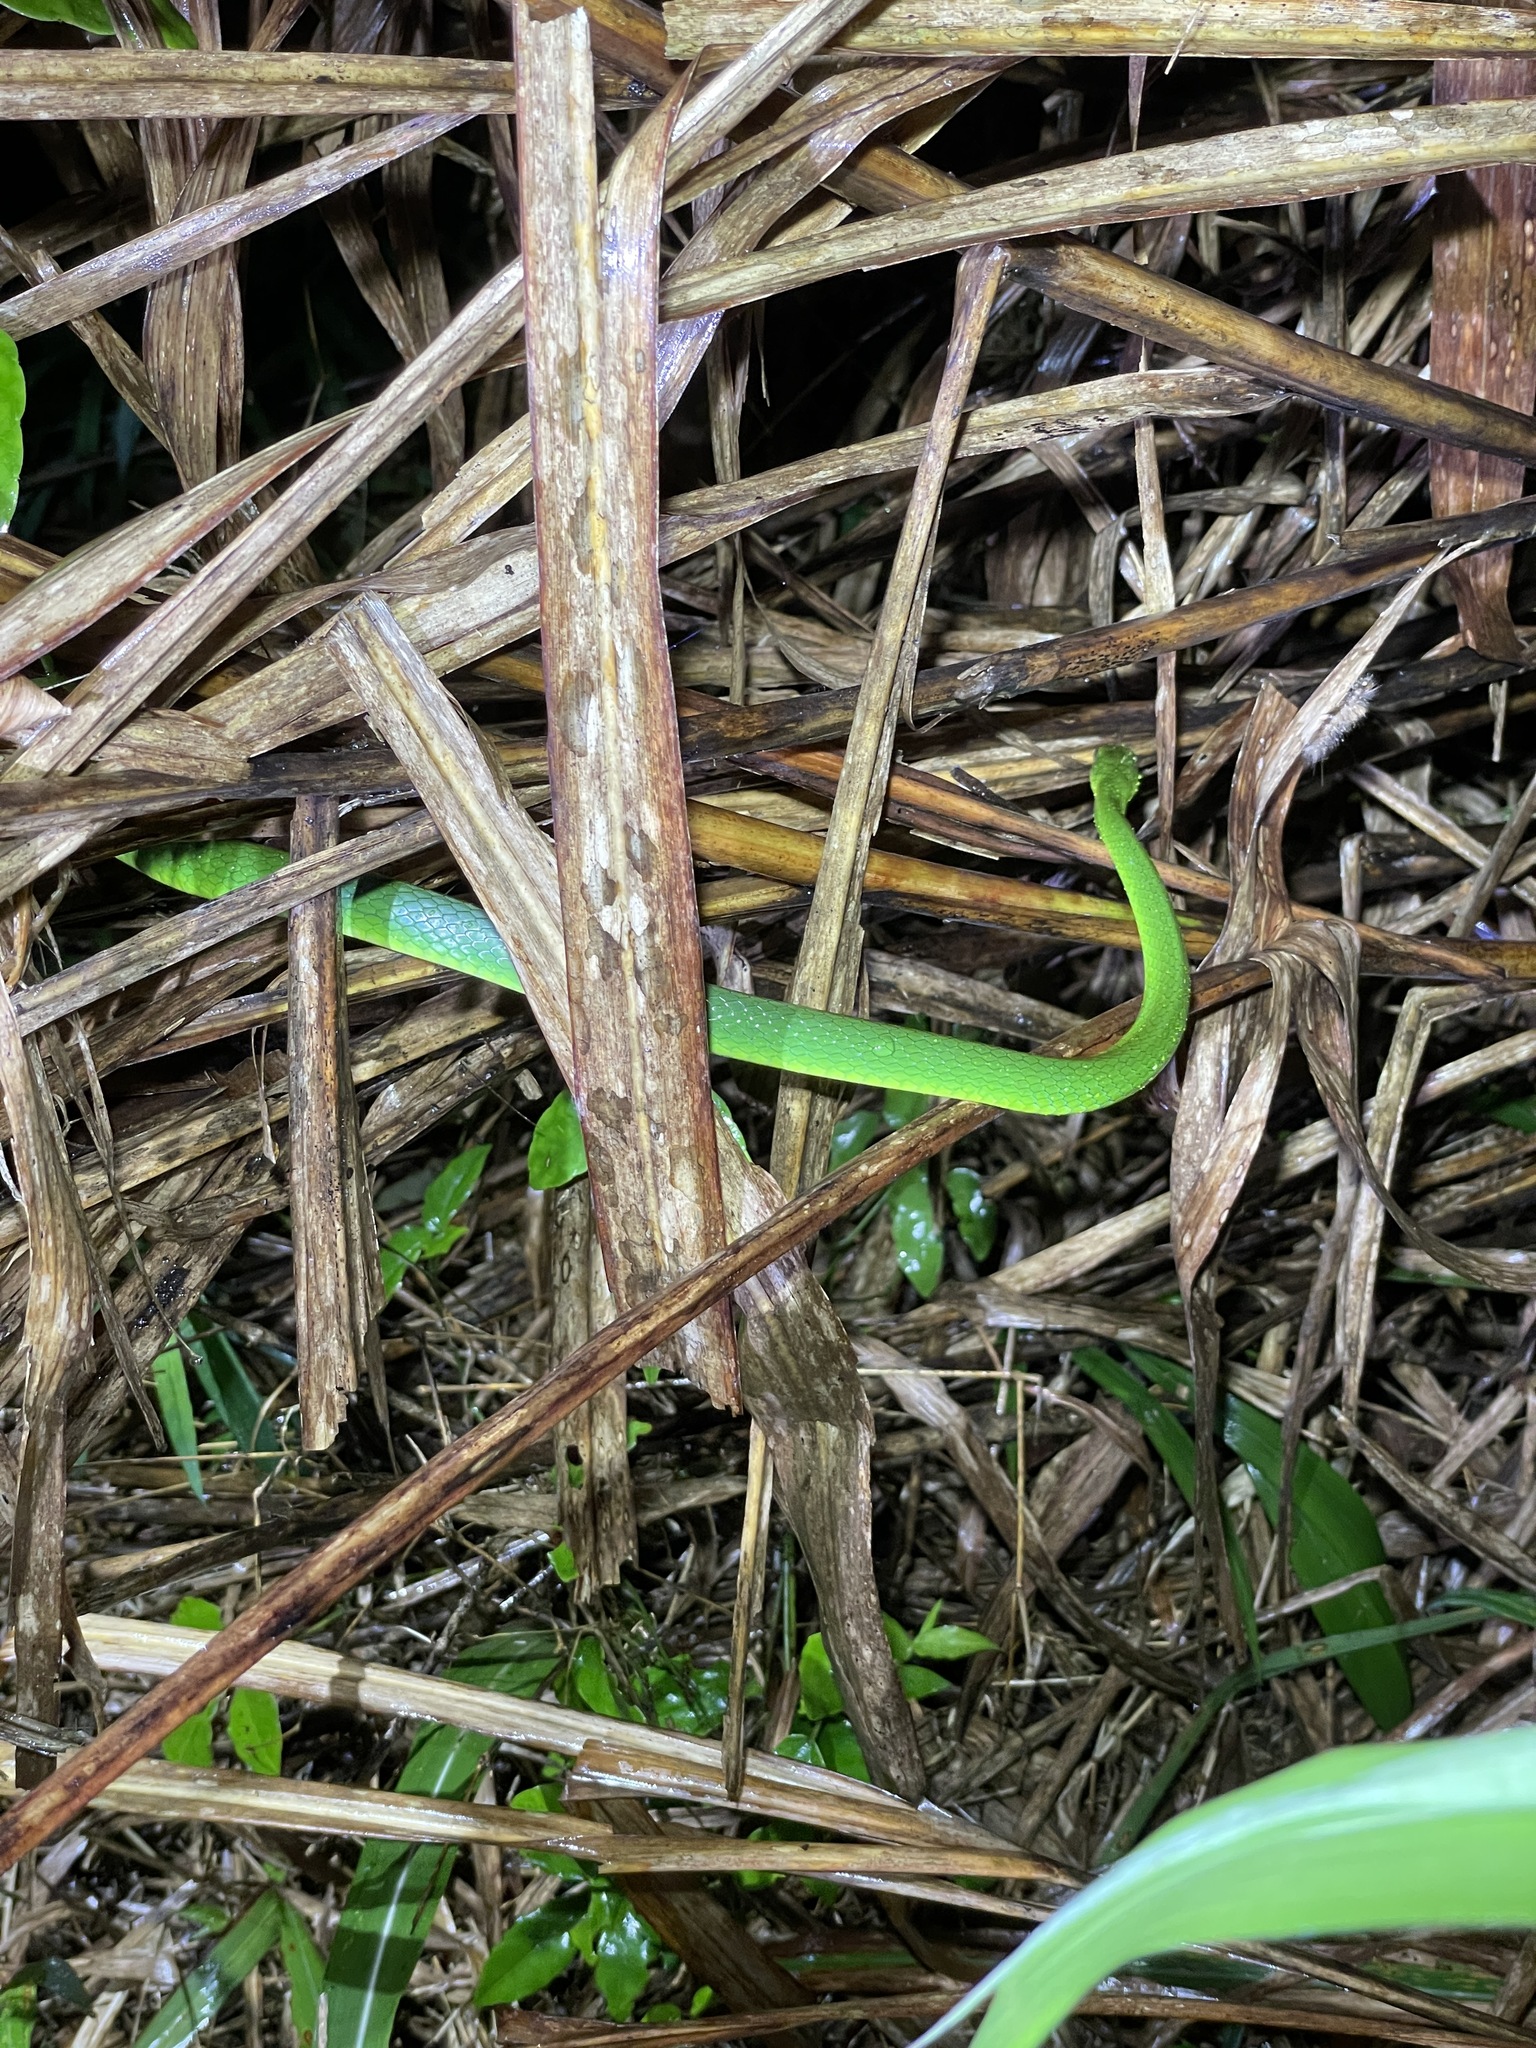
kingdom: Animalia
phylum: Chordata
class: Squamata
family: Colubridae
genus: Ptyas
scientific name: Ptyas major
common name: Chinese green snake
